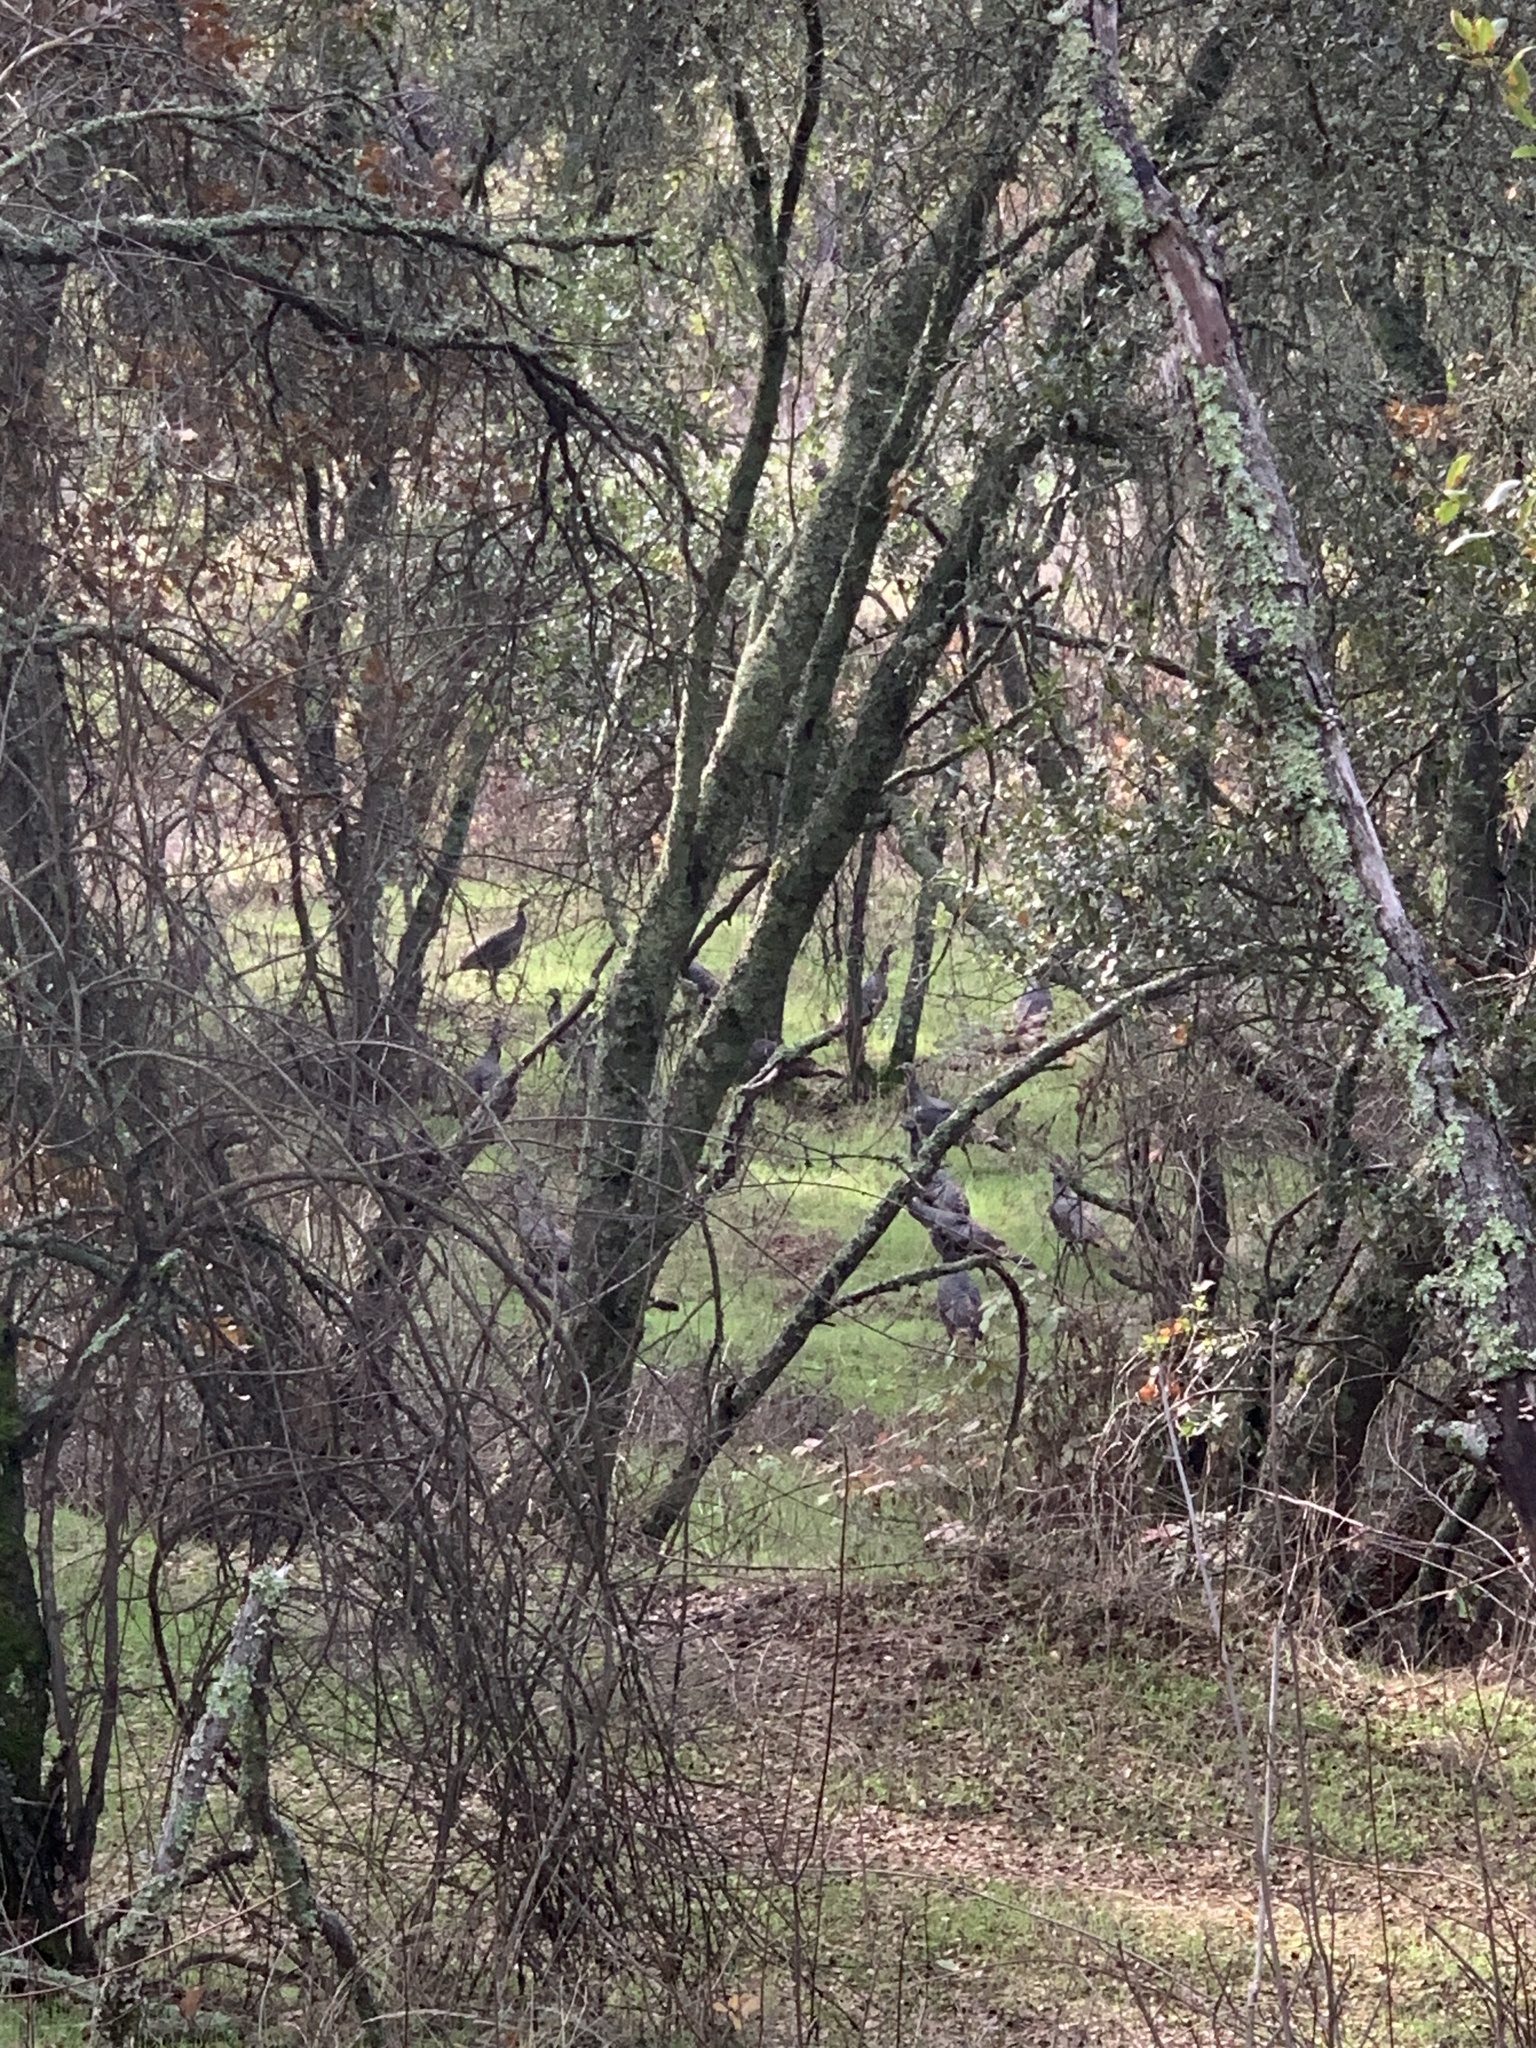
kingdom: Animalia
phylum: Chordata
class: Aves
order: Galliformes
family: Phasianidae
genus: Meleagris
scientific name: Meleagris gallopavo
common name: Wild turkey
